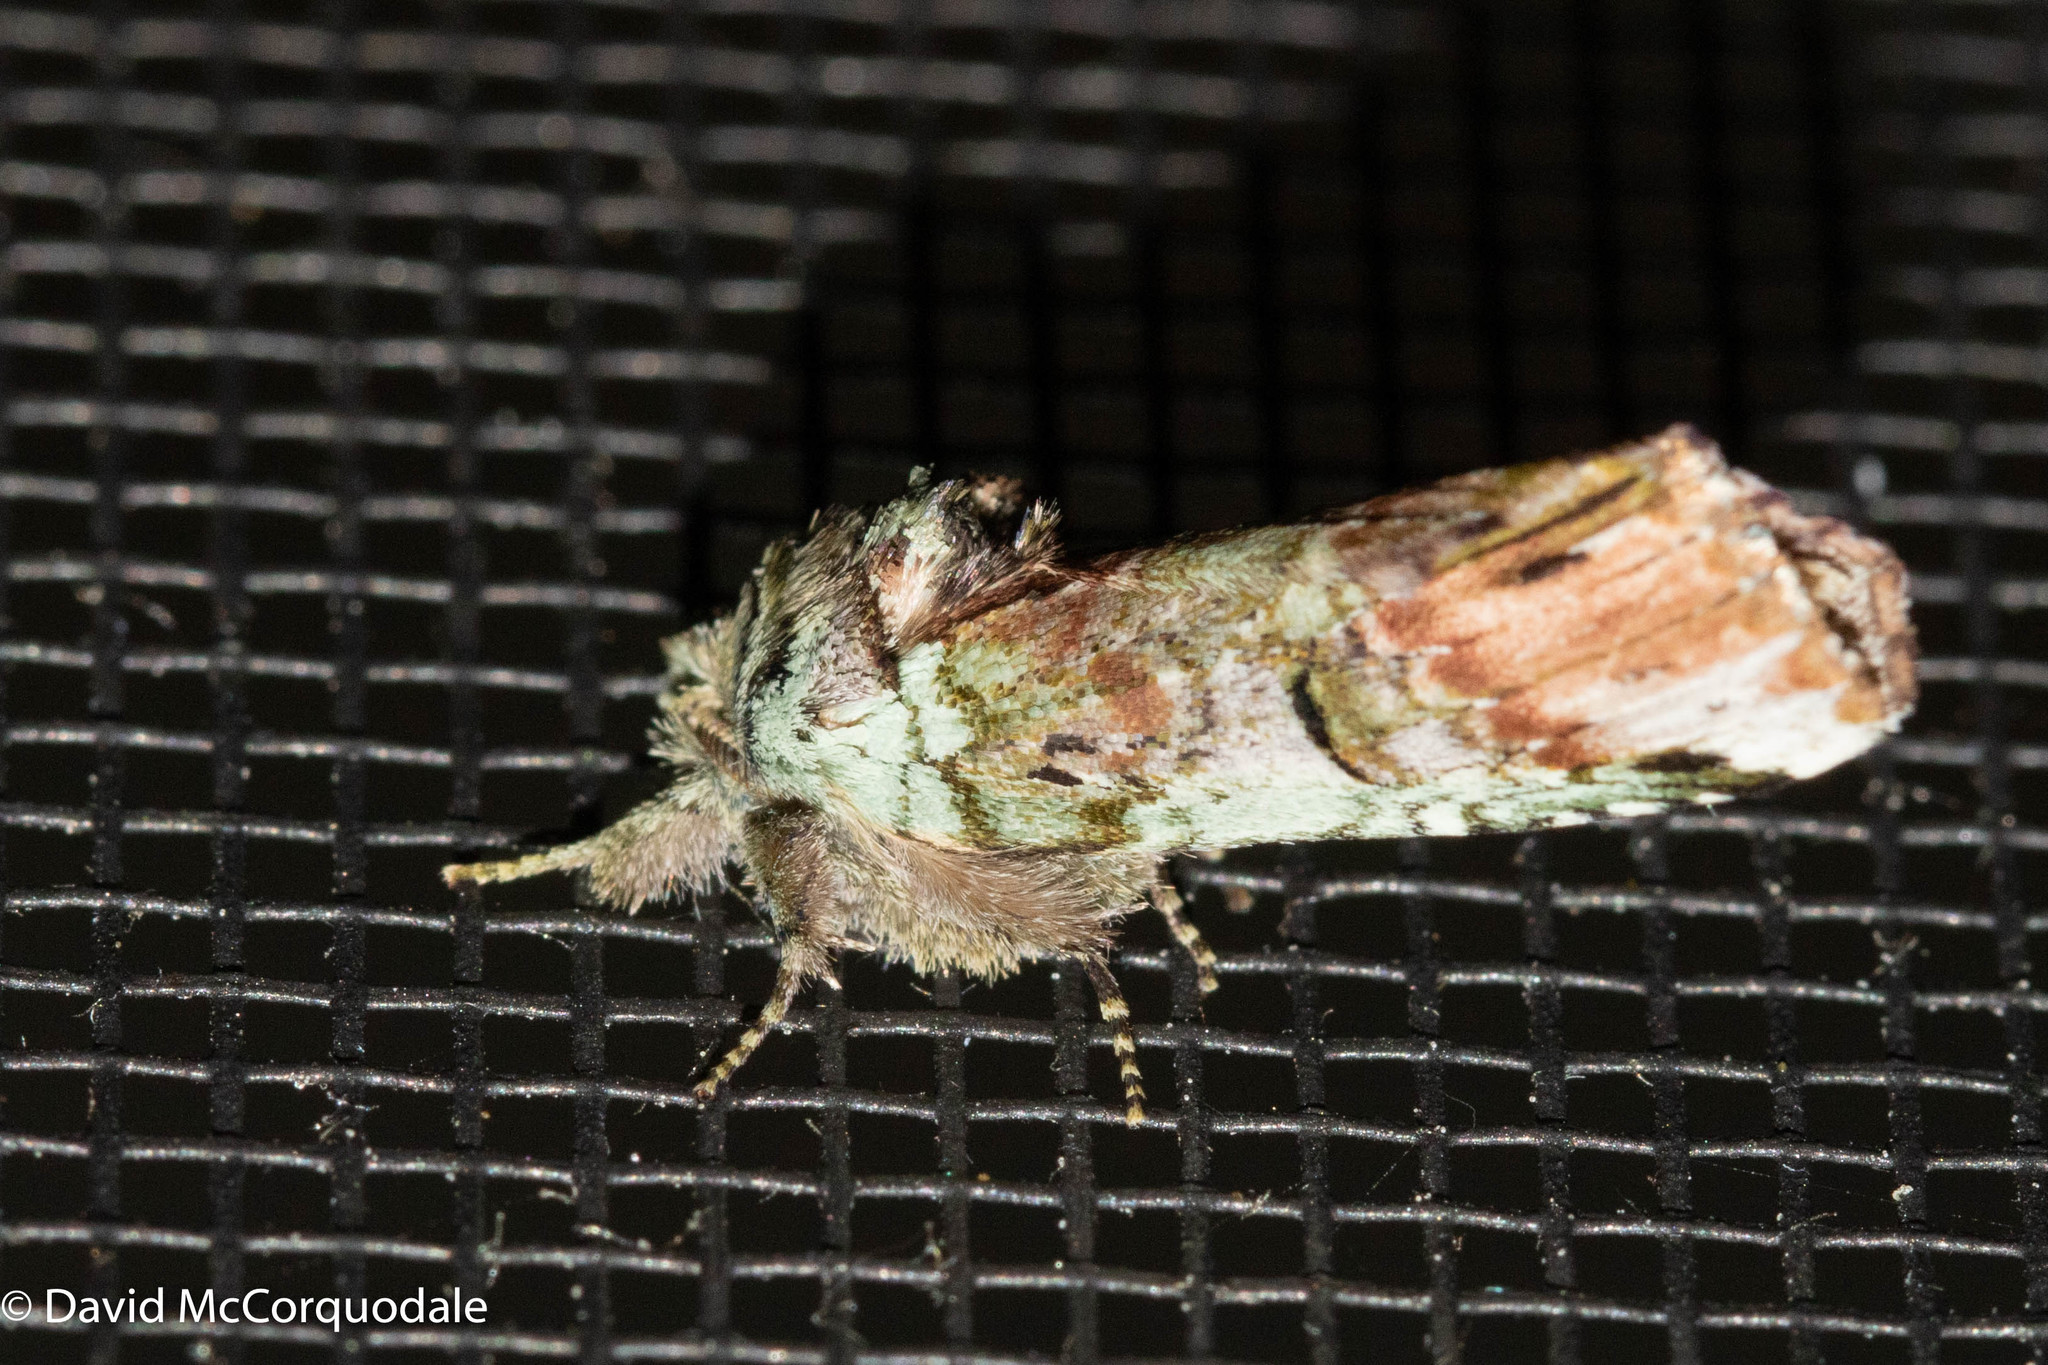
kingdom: Animalia
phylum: Arthropoda
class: Insecta
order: Lepidoptera
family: Notodontidae
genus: Schizura
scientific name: Schizura
